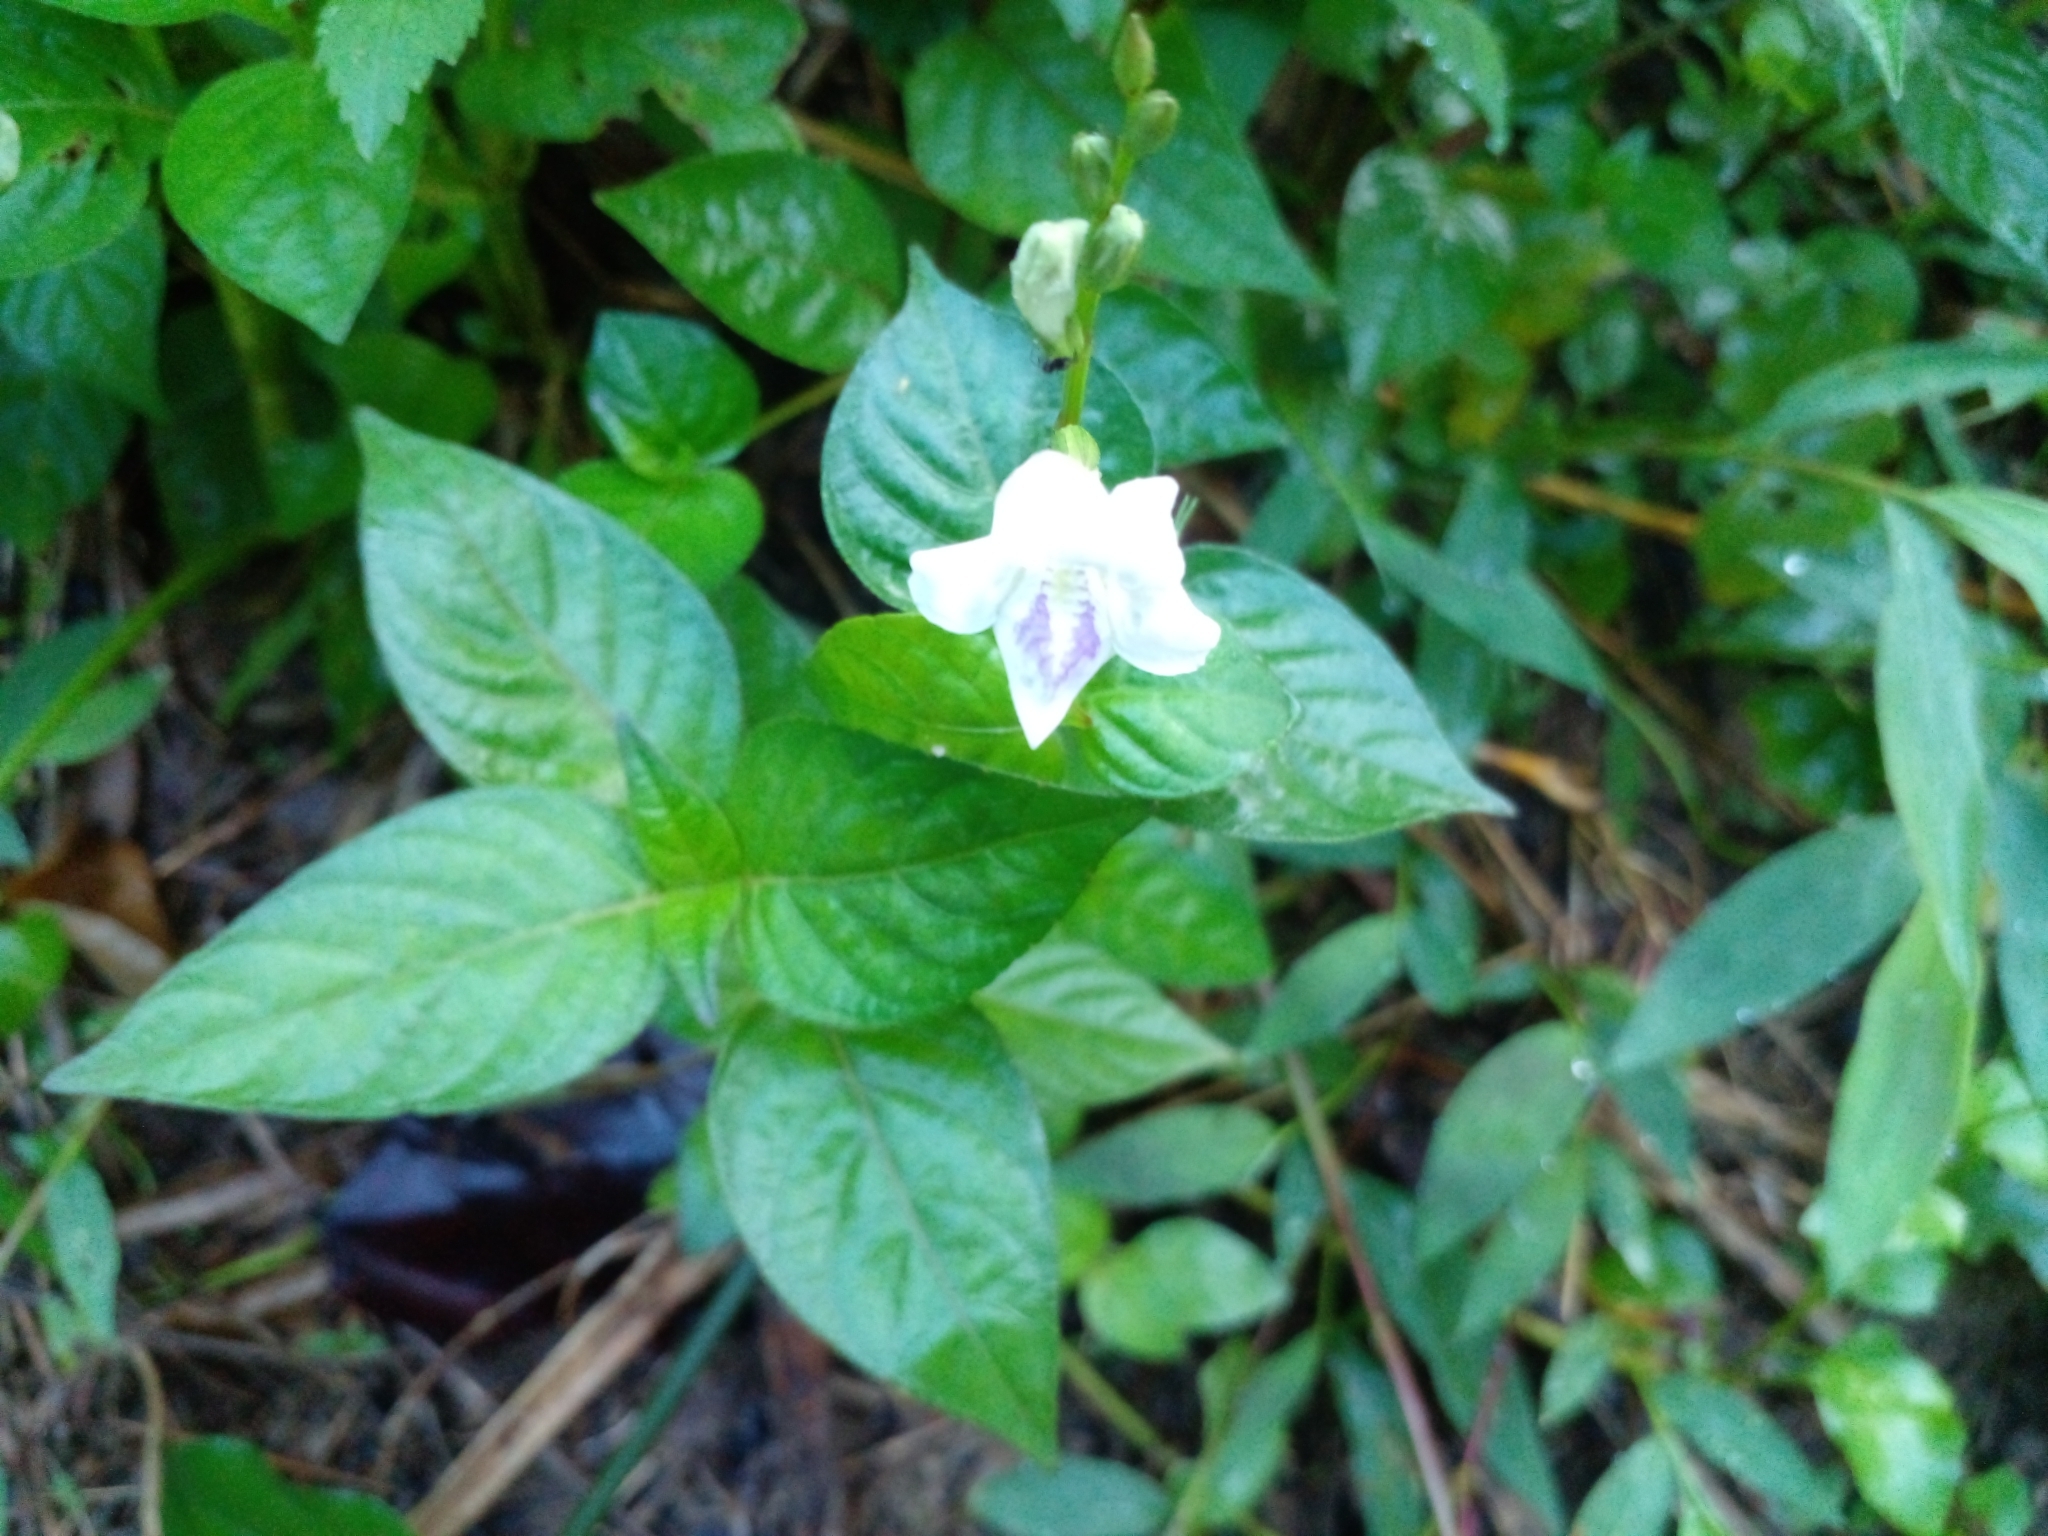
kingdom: Plantae
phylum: Tracheophyta
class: Magnoliopsida
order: Lamiales
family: Acanthaceae
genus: Asystasia
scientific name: Asystasia gangetica
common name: Chinese violet
